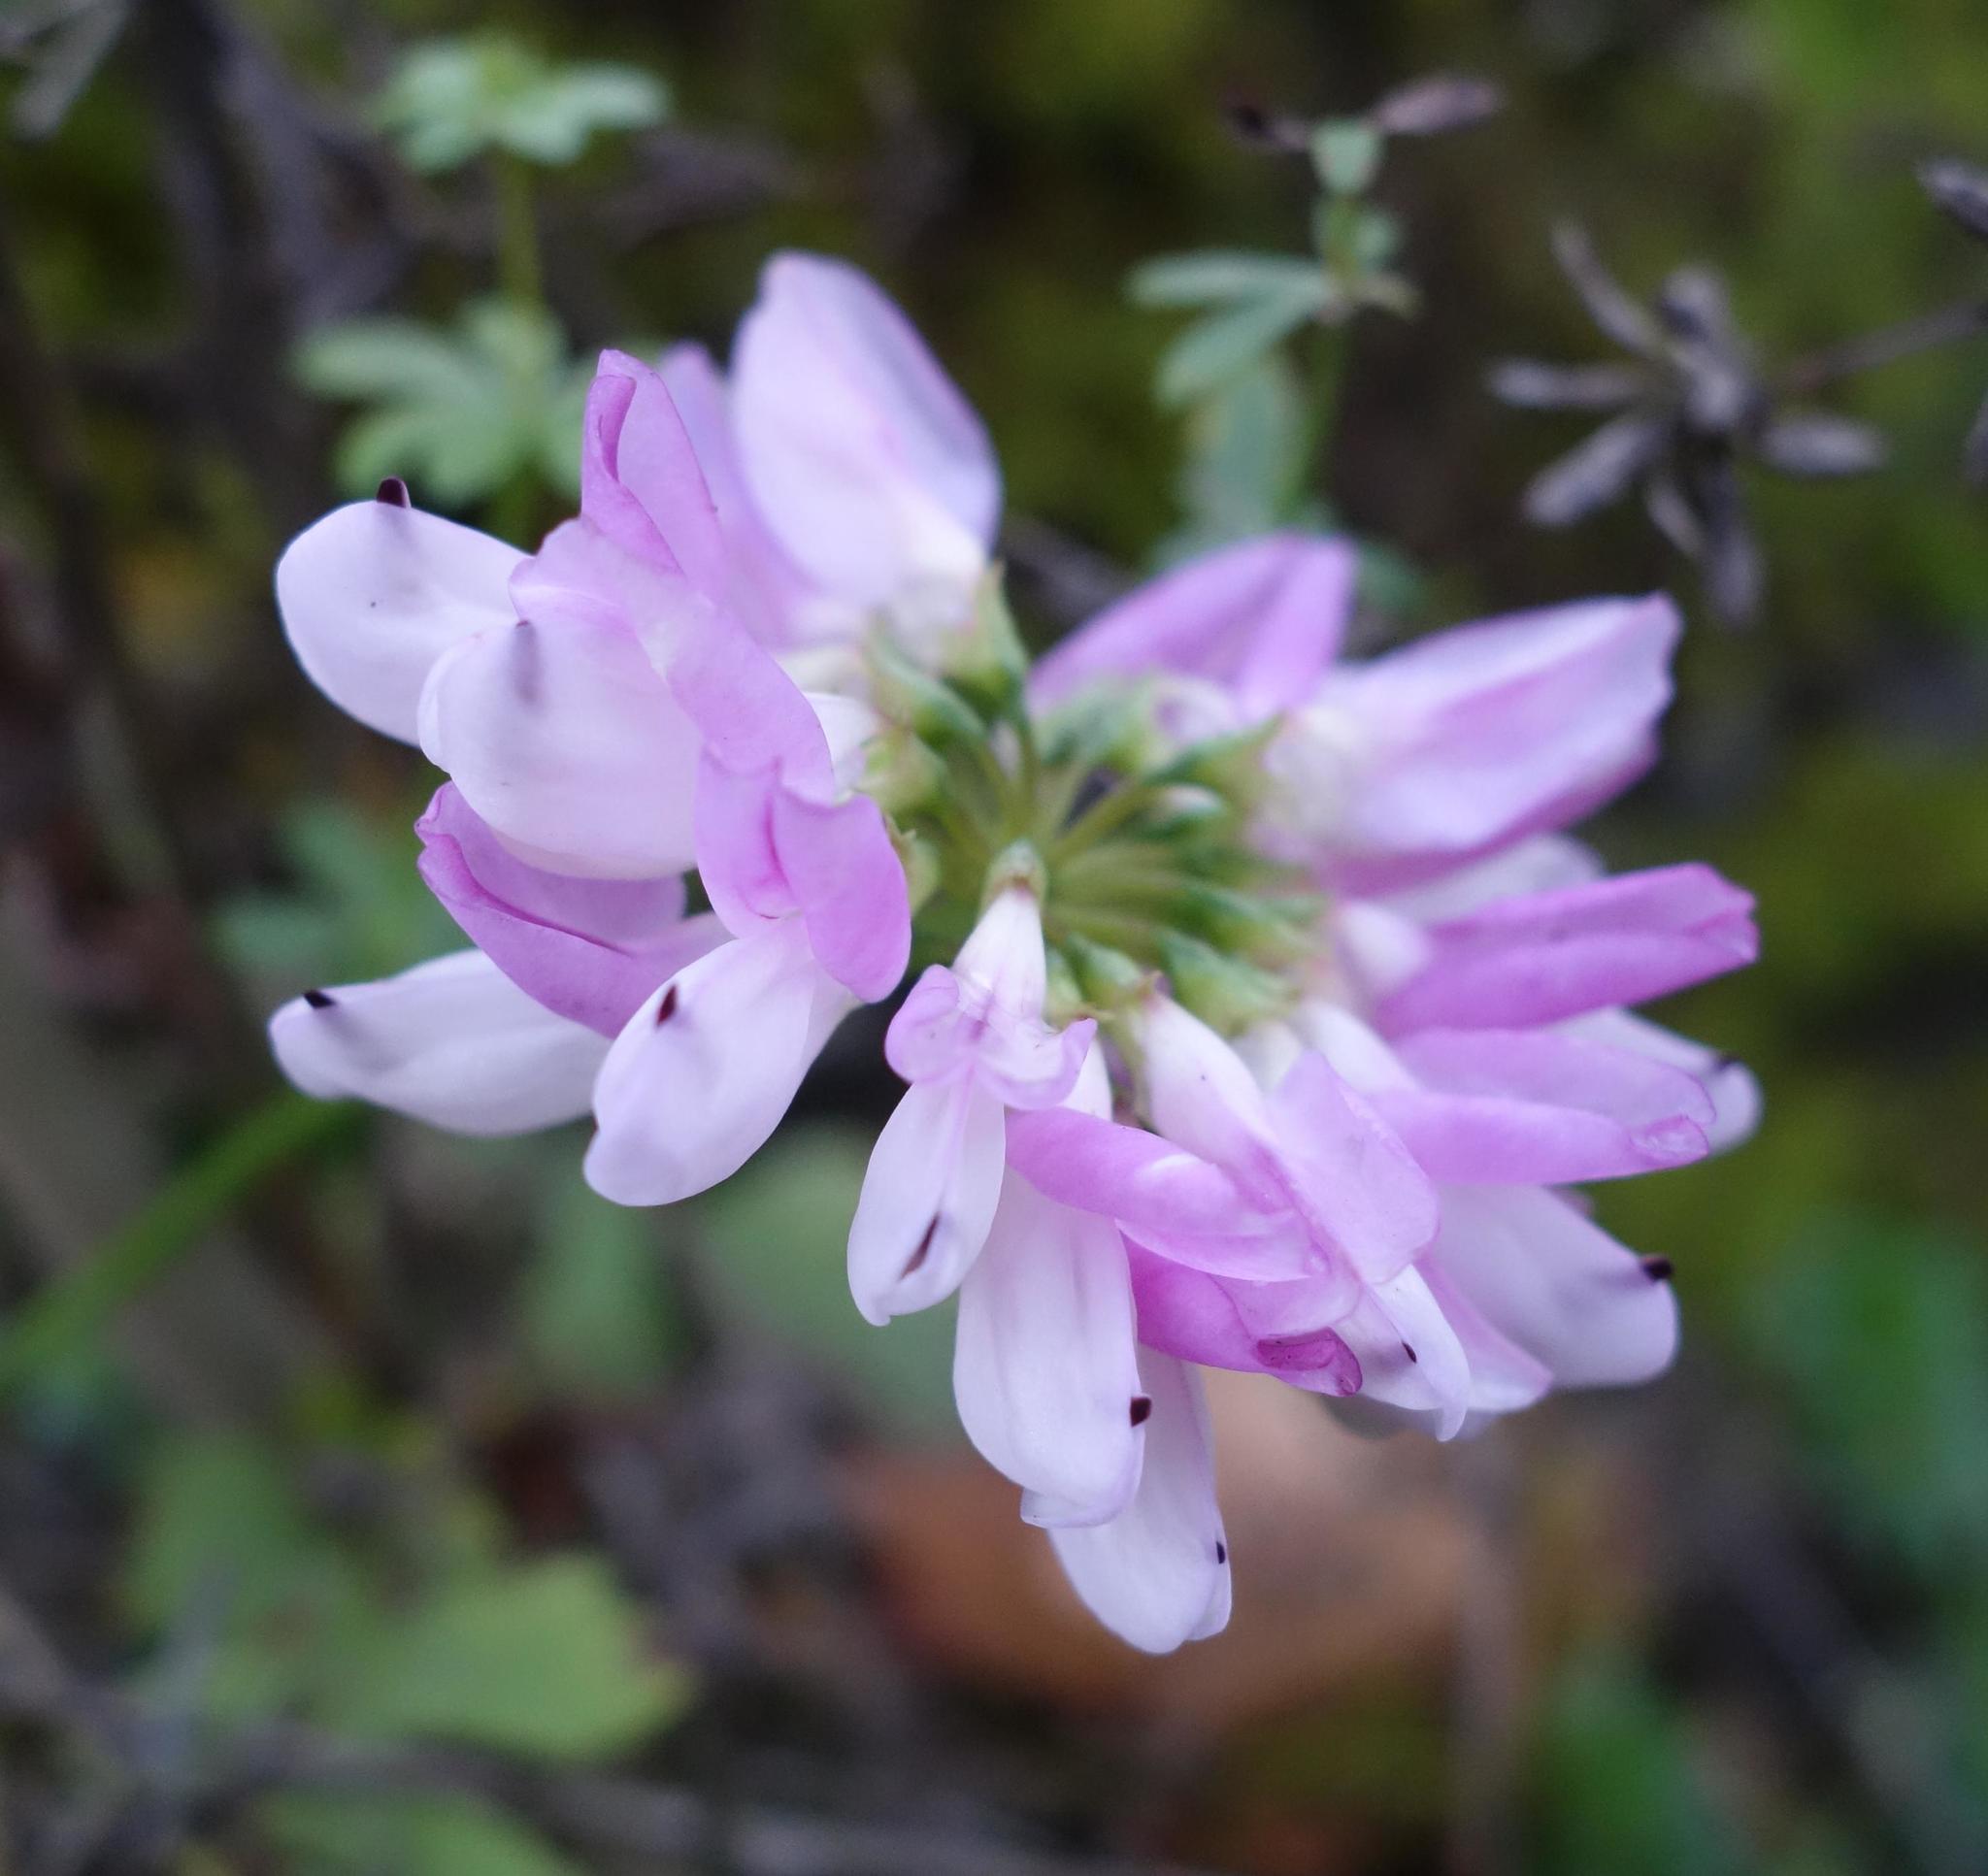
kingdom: Plantae
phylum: Tracheophyta
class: Magnoliopsida
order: Fabales
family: Fabaceae
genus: Coronilla
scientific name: Coronilla varia
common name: Crownvetch
